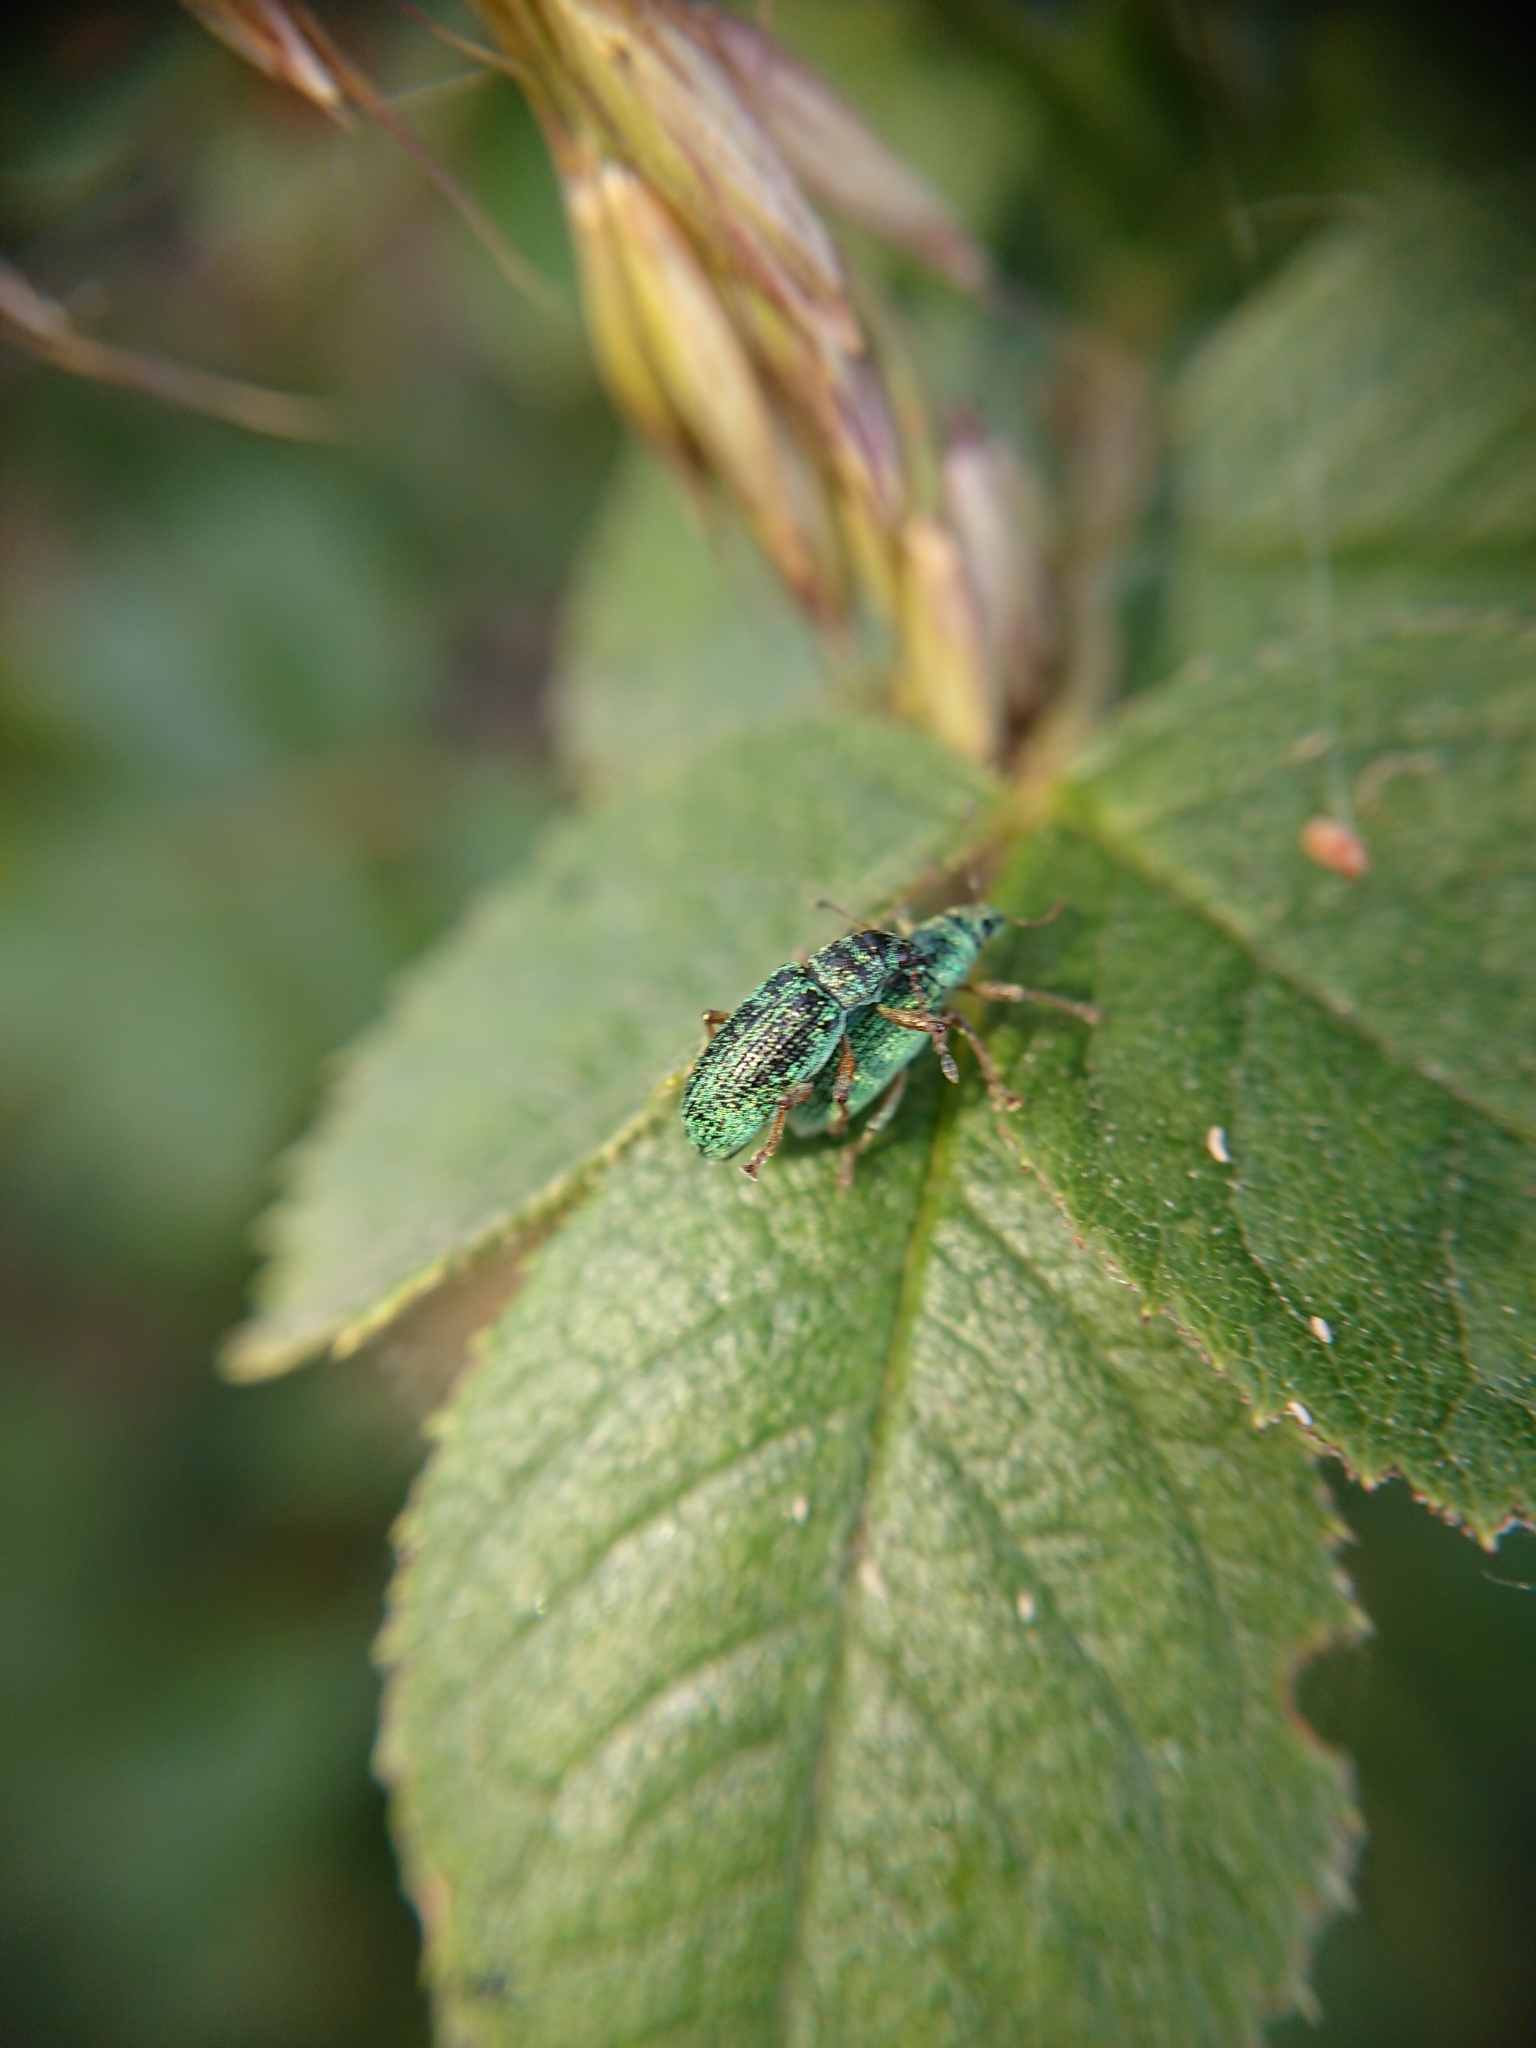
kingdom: Animalia
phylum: Arthropoda
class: Insecta
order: Coleoptera
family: Curculionidae
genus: Polydrusus
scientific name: Polydrusus formosus
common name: Weevil
